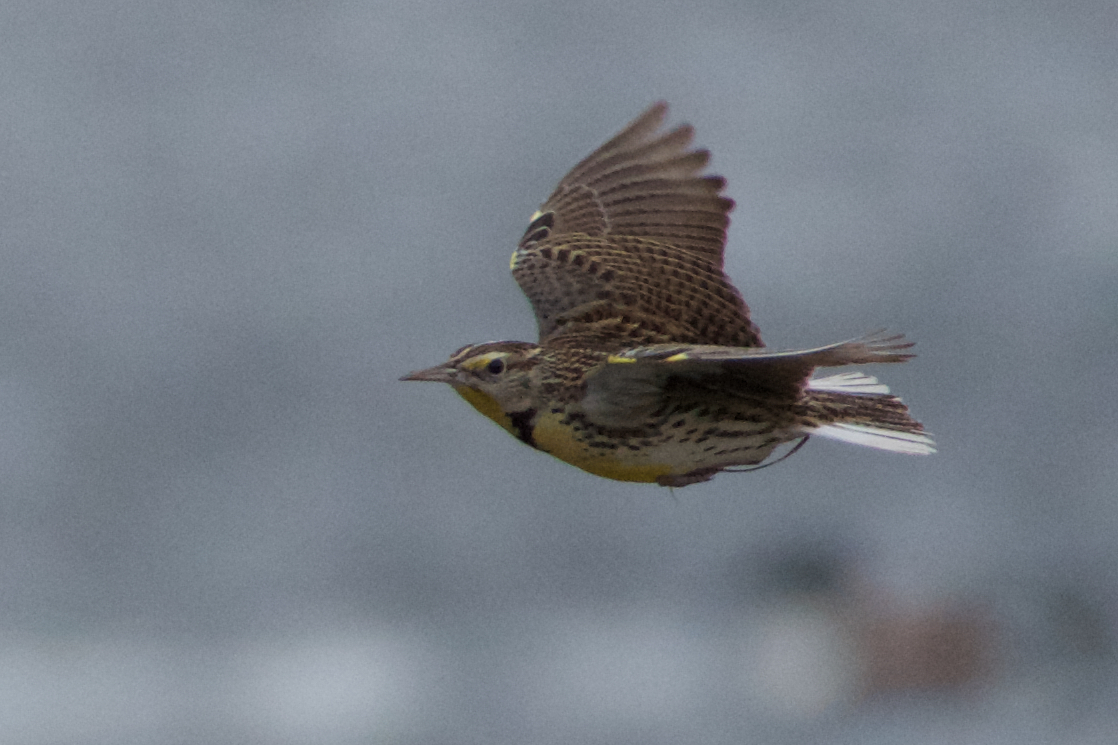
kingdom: Animalia
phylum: Chordata
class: Aves
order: Passeriformes
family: Icteridae
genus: Sturnella
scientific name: Sturnella neglecta
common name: Western meadowlark
